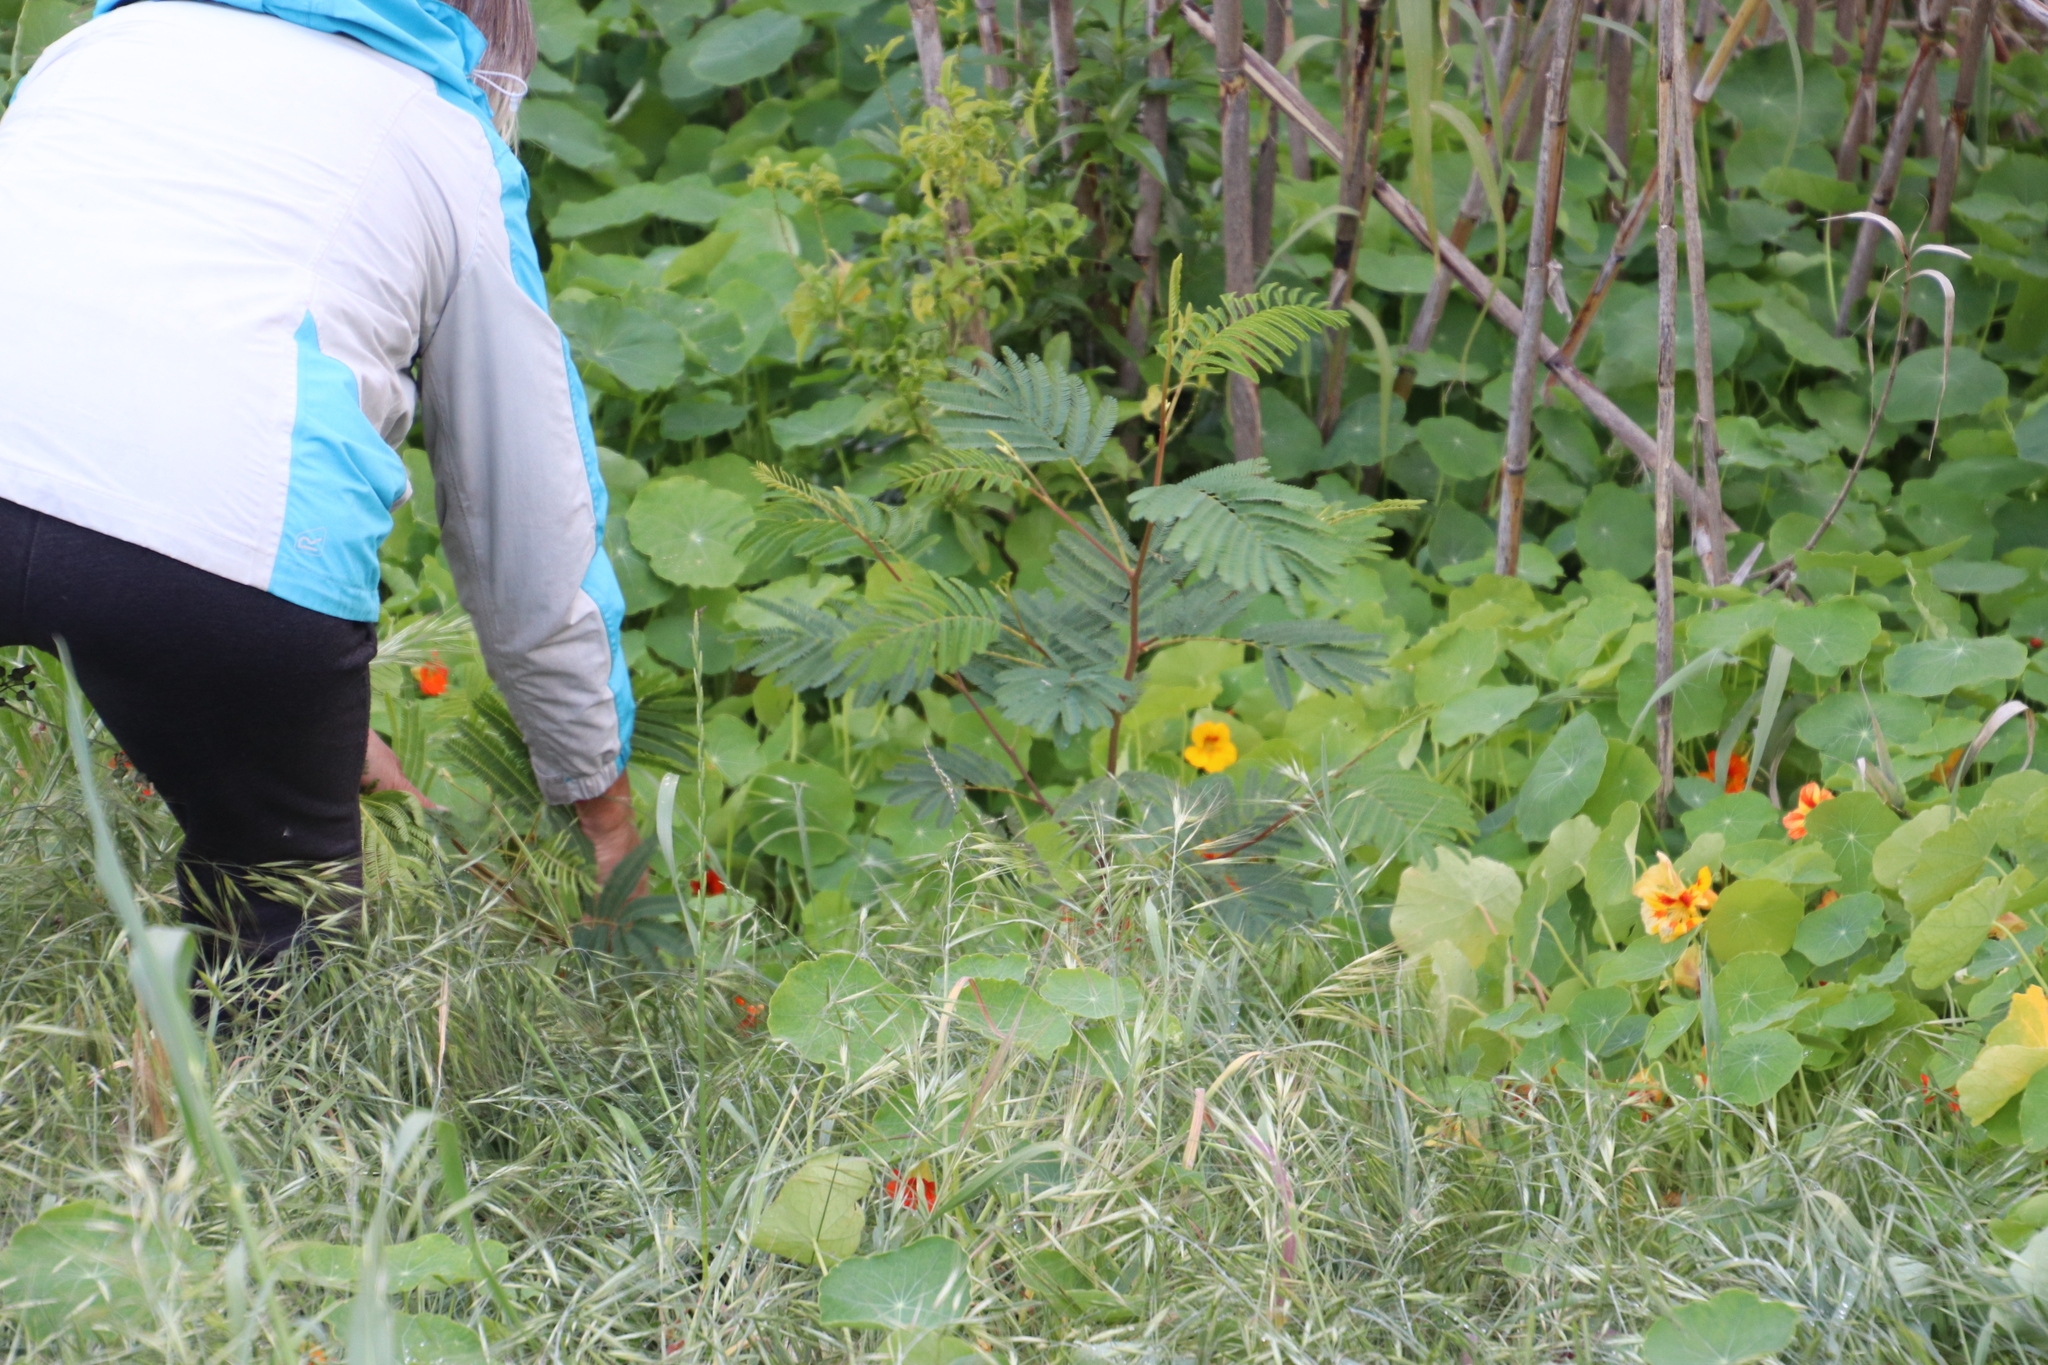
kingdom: Plantae
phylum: Tracheophyta
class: Magnoliopsida
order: Fabales
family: Fabaceae
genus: Paraserianthes
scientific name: Paraserianthes lophantha
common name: Plume albizia
